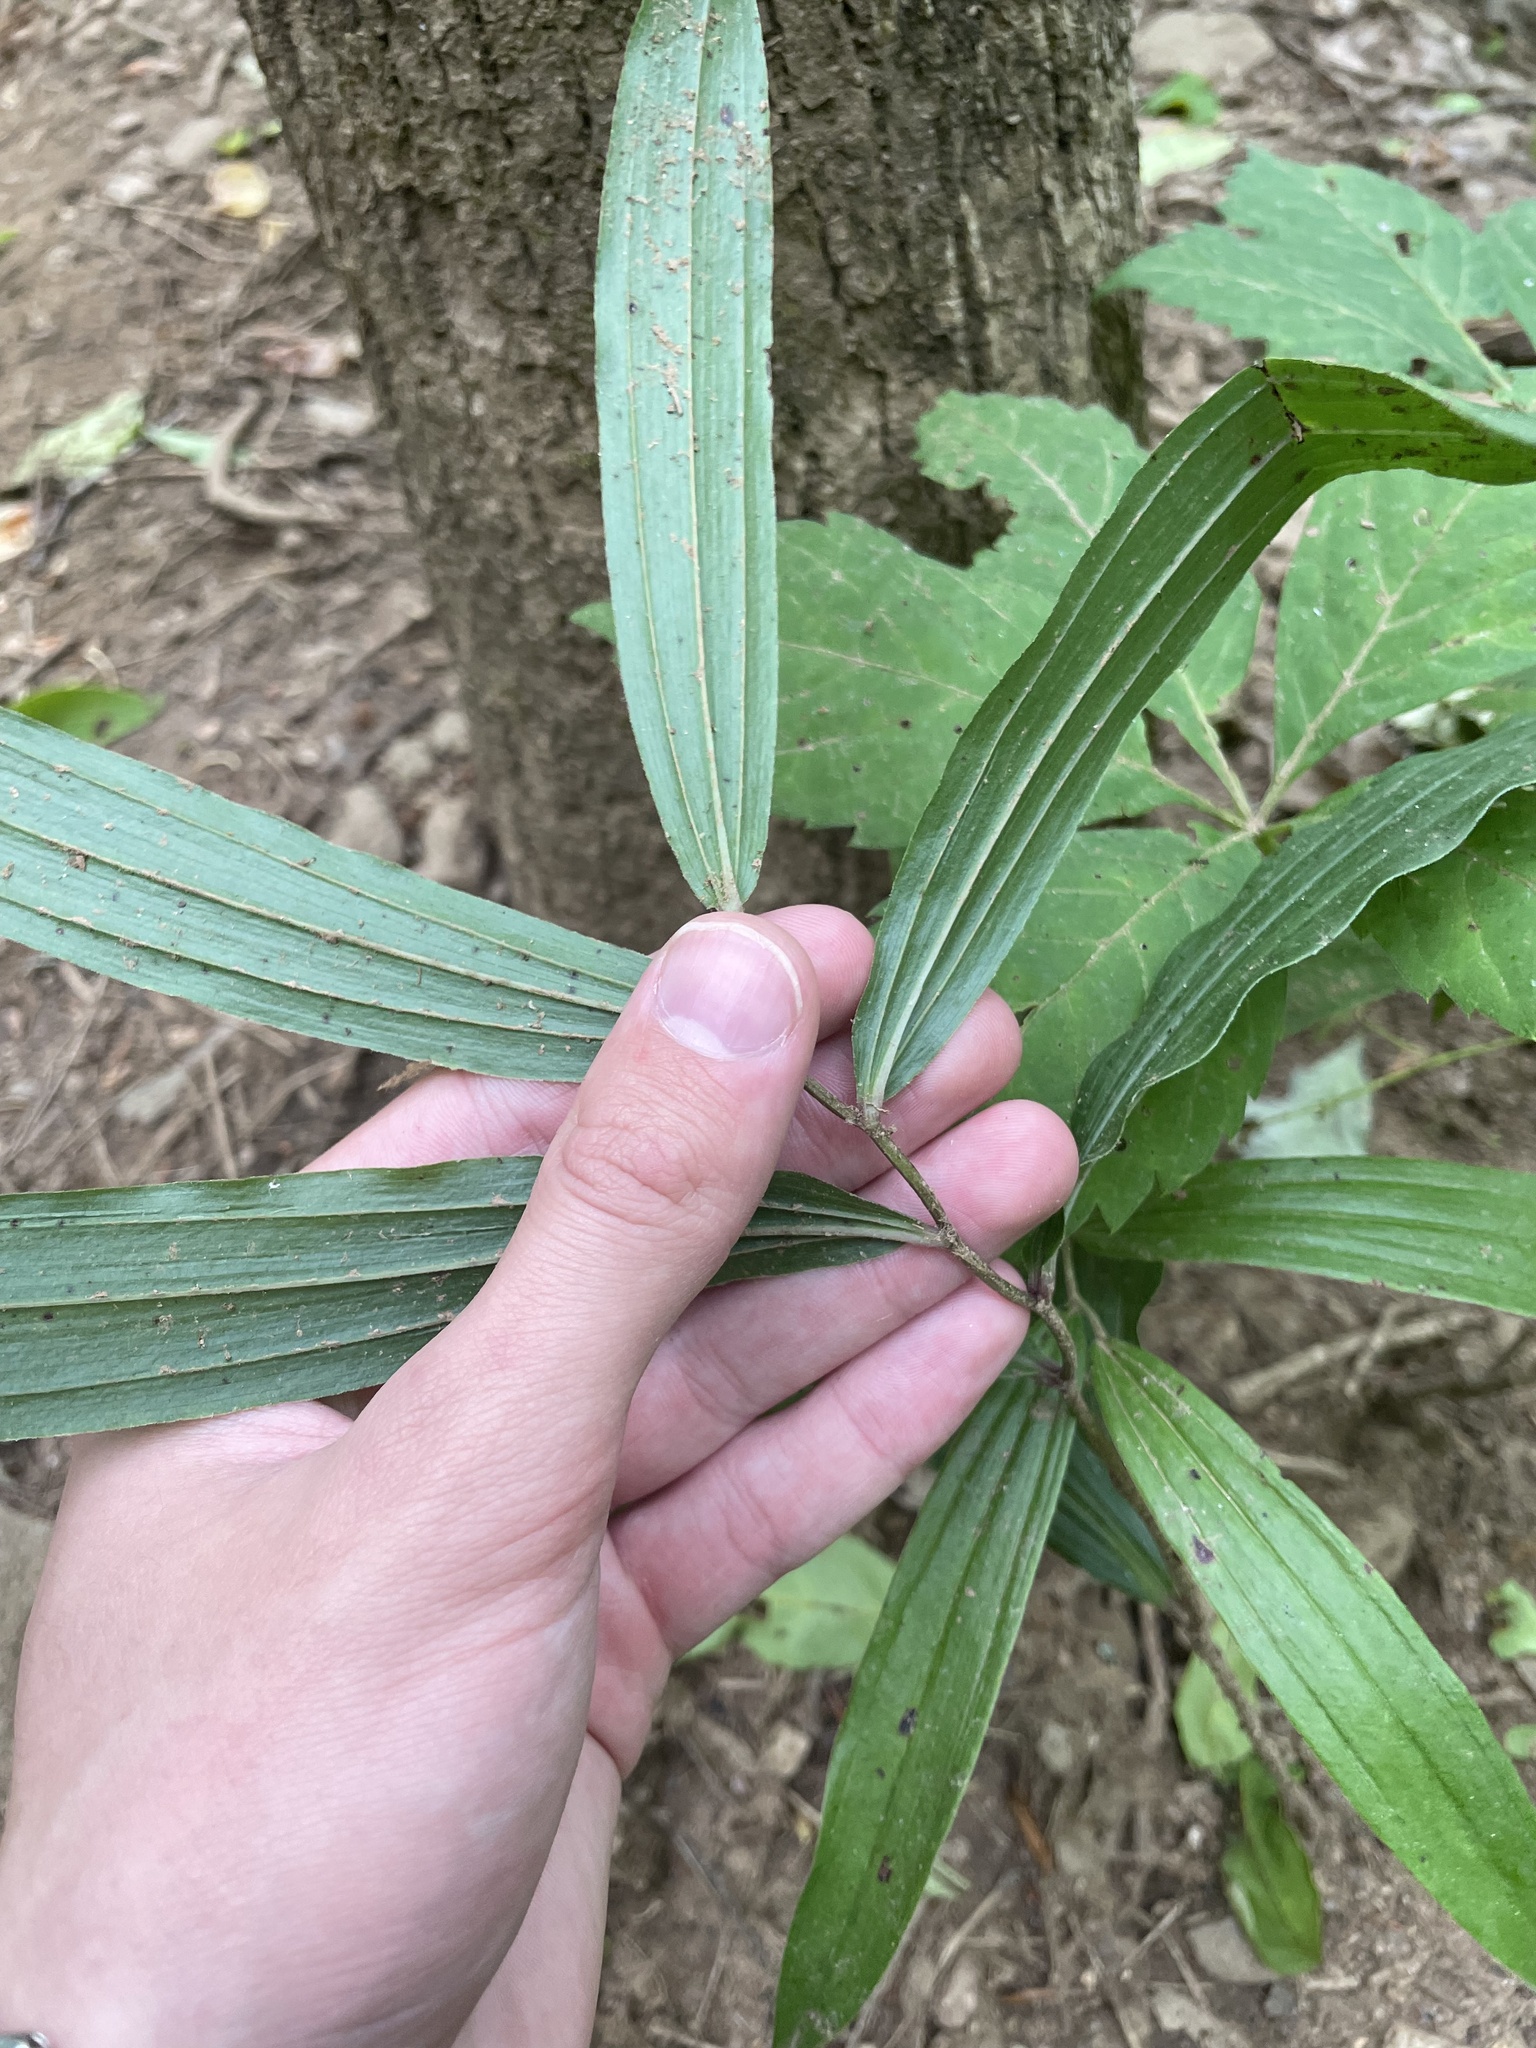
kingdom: Plantae
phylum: Tracheophyta
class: Liliopsida
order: Asparagales
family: Asparagaceae
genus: Maianthemum
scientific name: Maianthemum racemosum
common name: False spikenard
